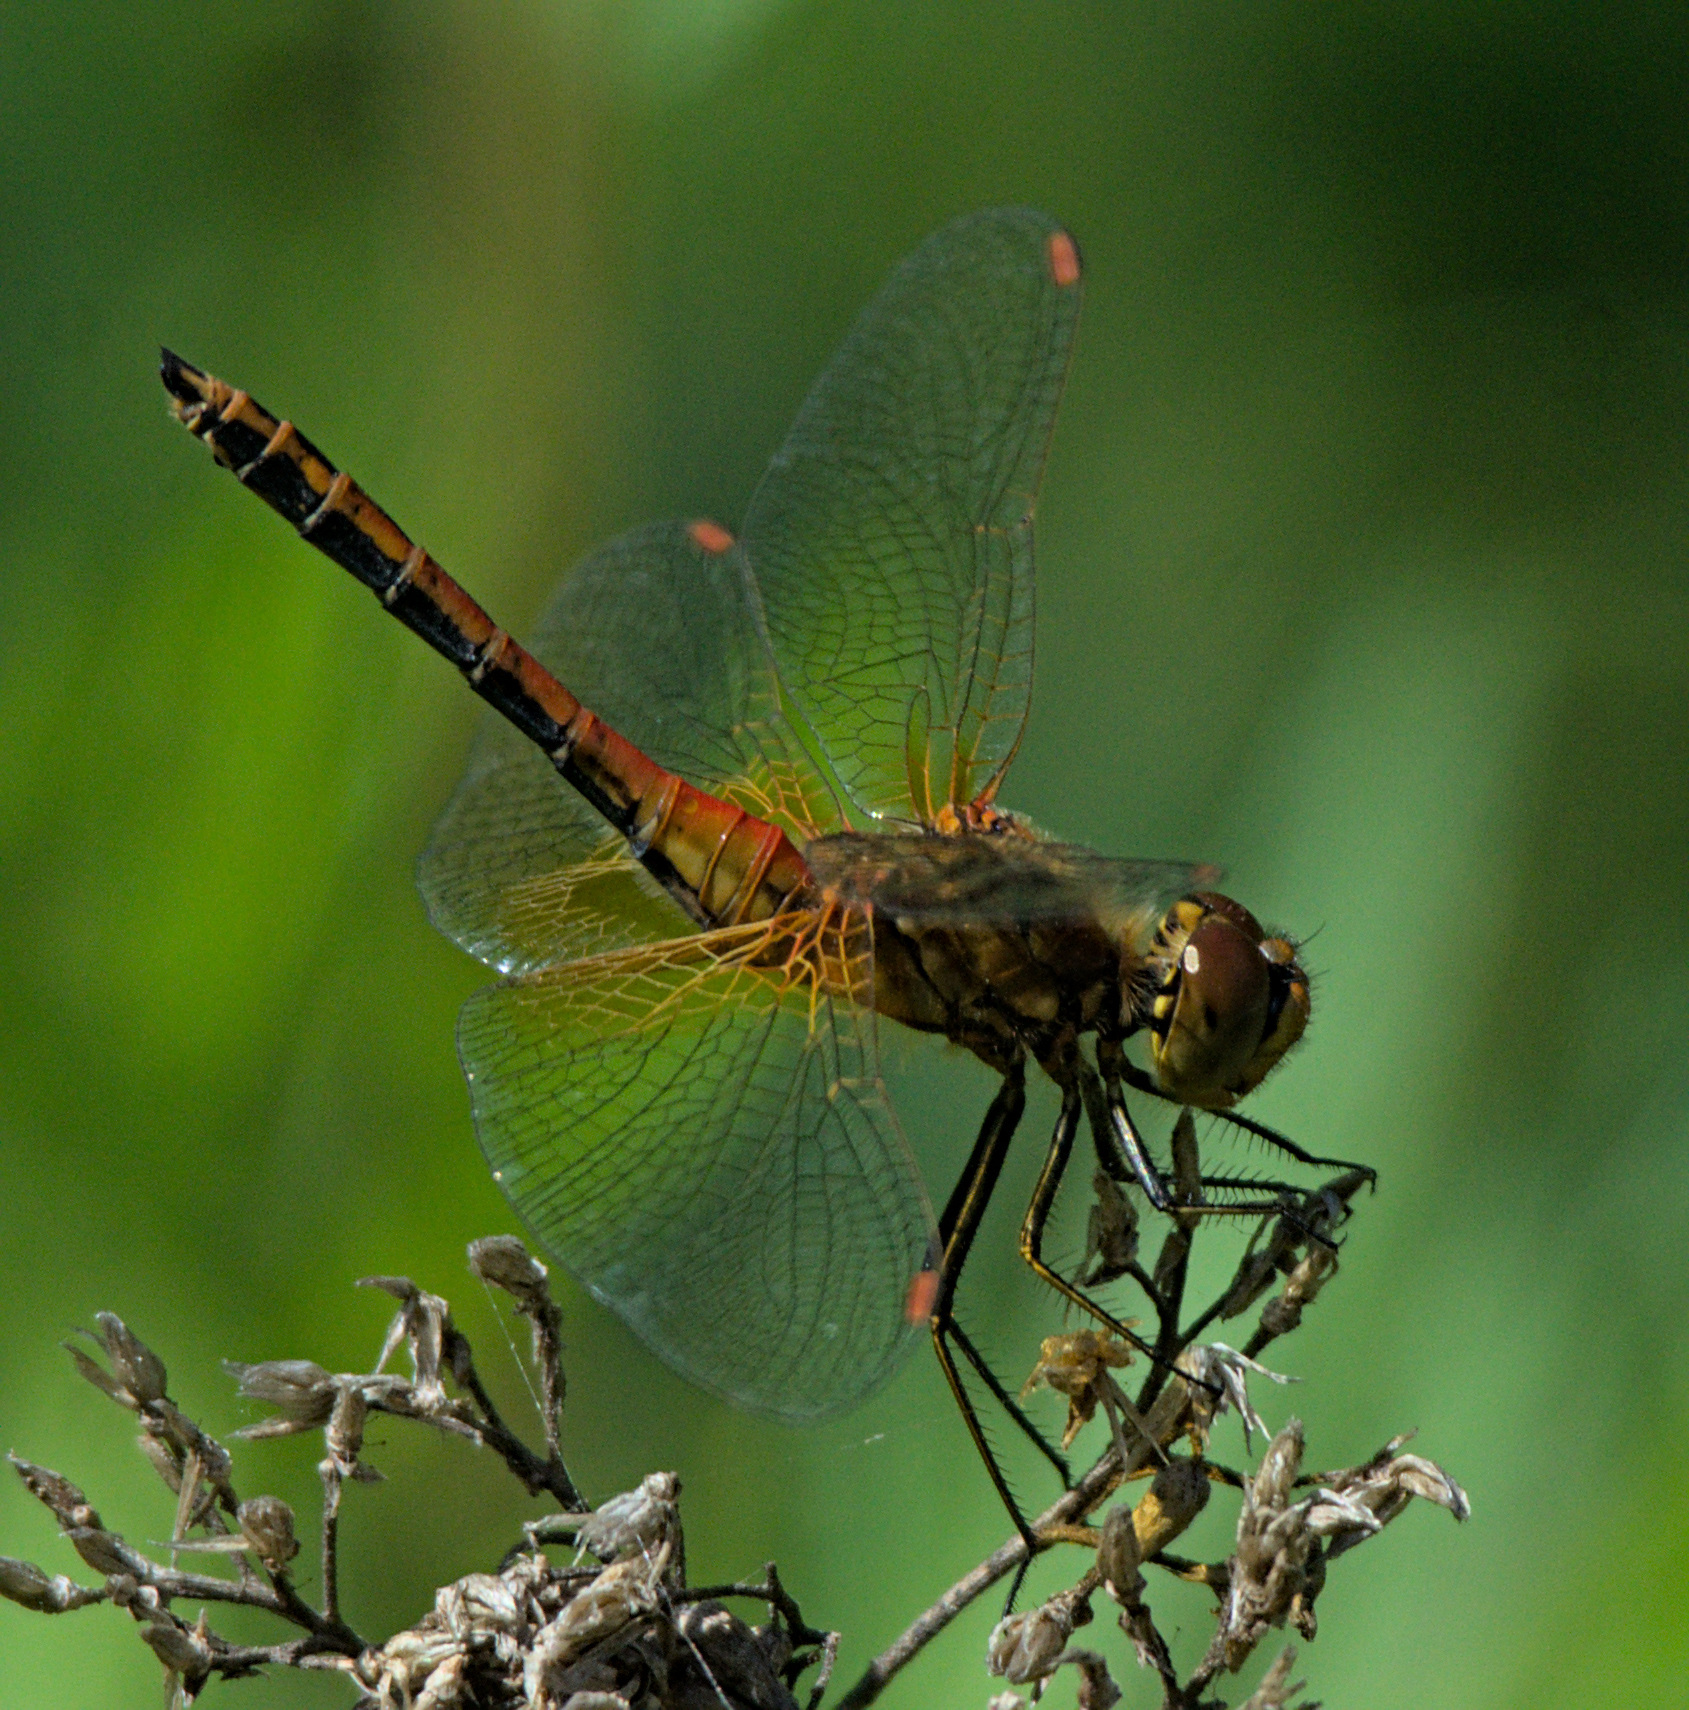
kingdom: Animalia
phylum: Arthropoda
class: Insecta
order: Odonata
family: Libellulidae
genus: Sympetrum
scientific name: Sympetrum flaveolum
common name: Yellow-winged darter
